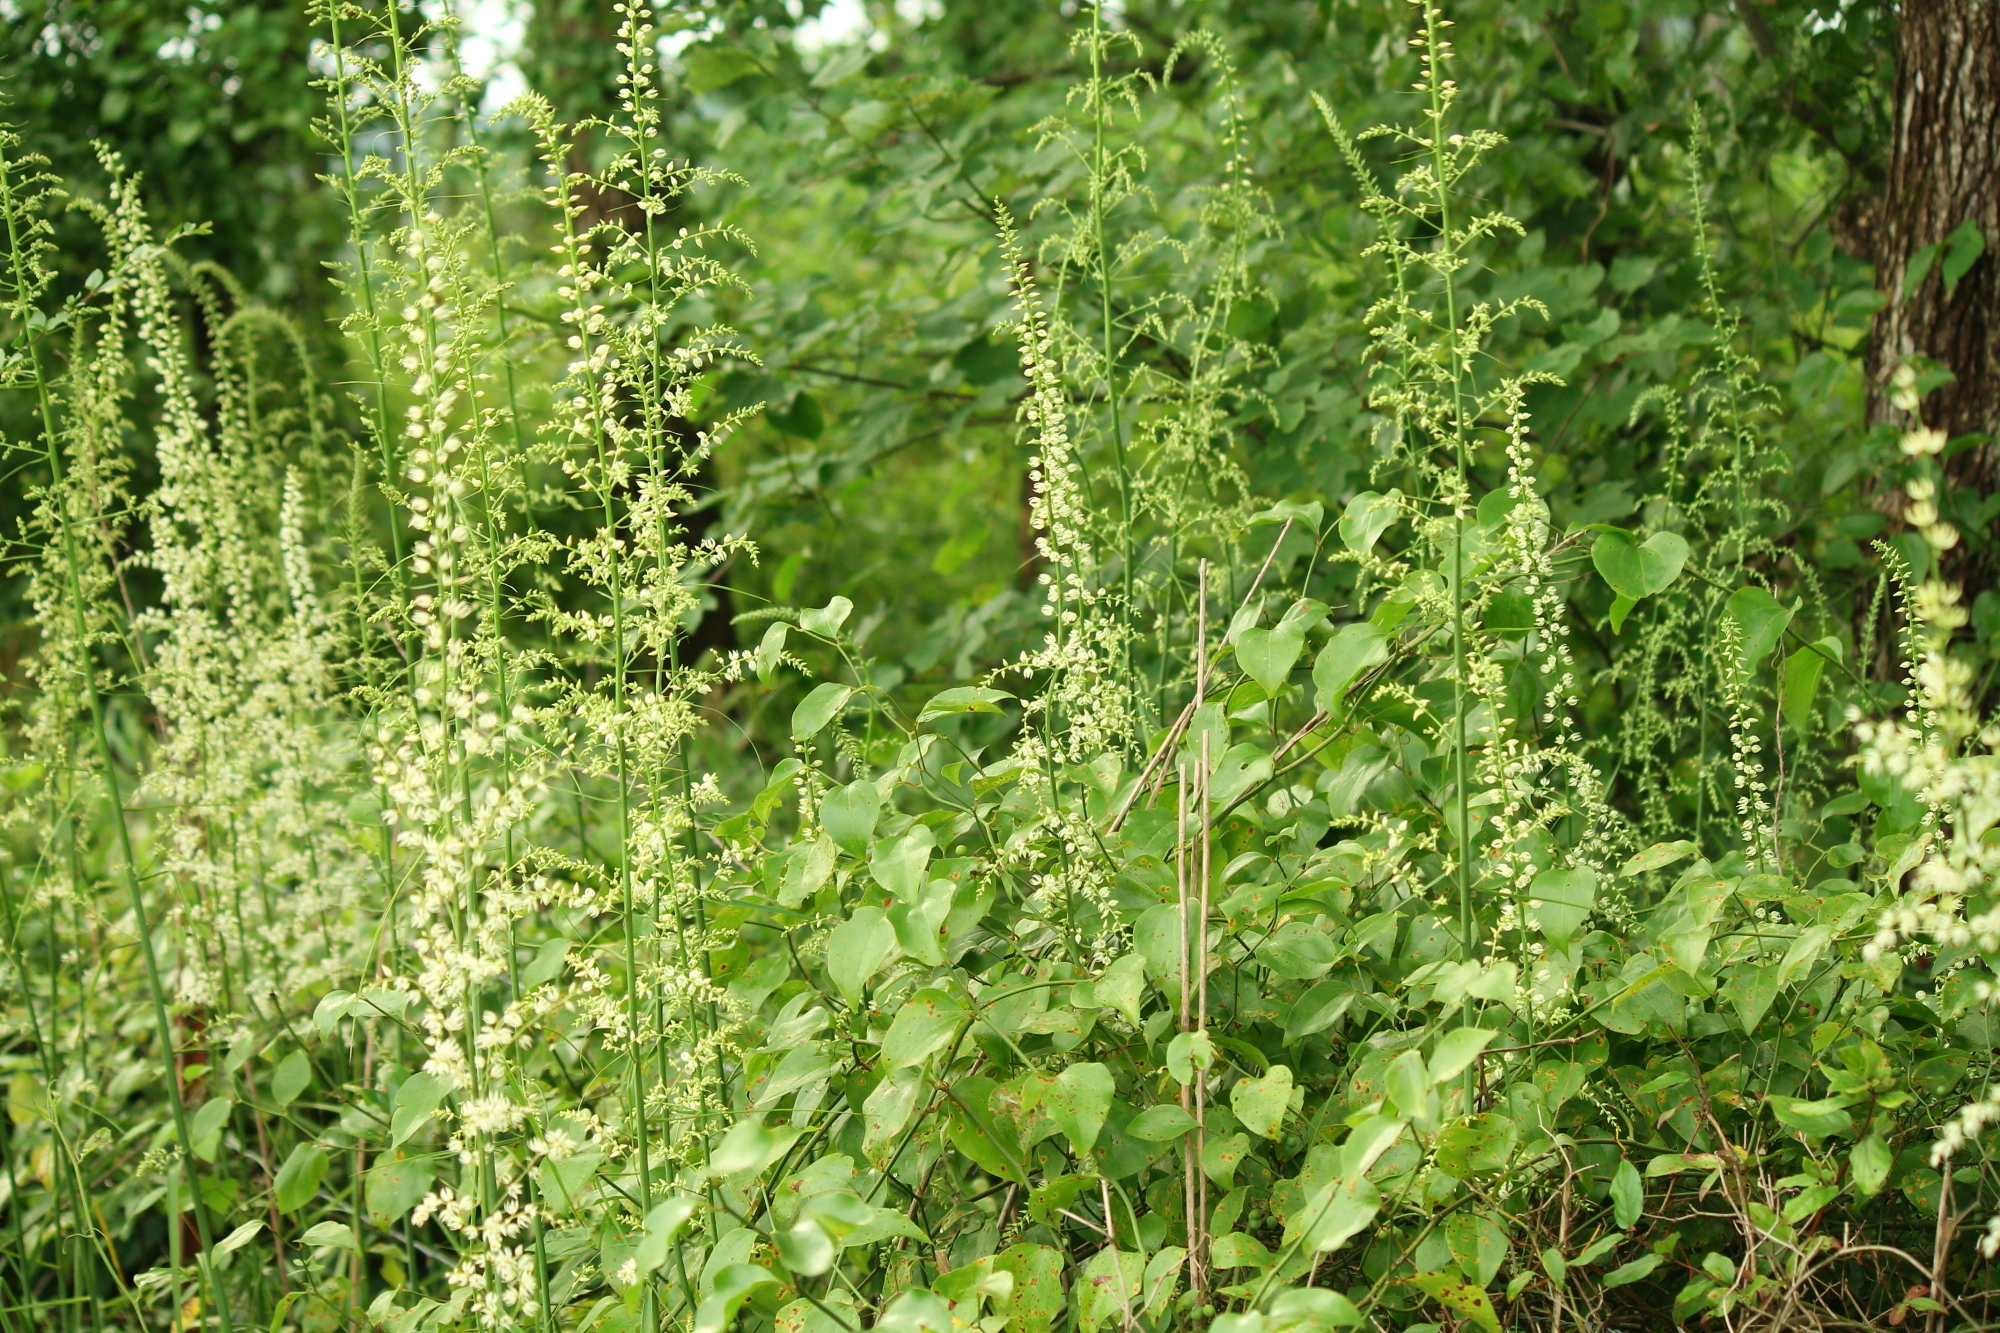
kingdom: Plantae
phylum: Tracheophyta
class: Liliopsida
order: Liliales
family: Melanthiaceae
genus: Stenanthium
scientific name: Stenanthium gramineum
